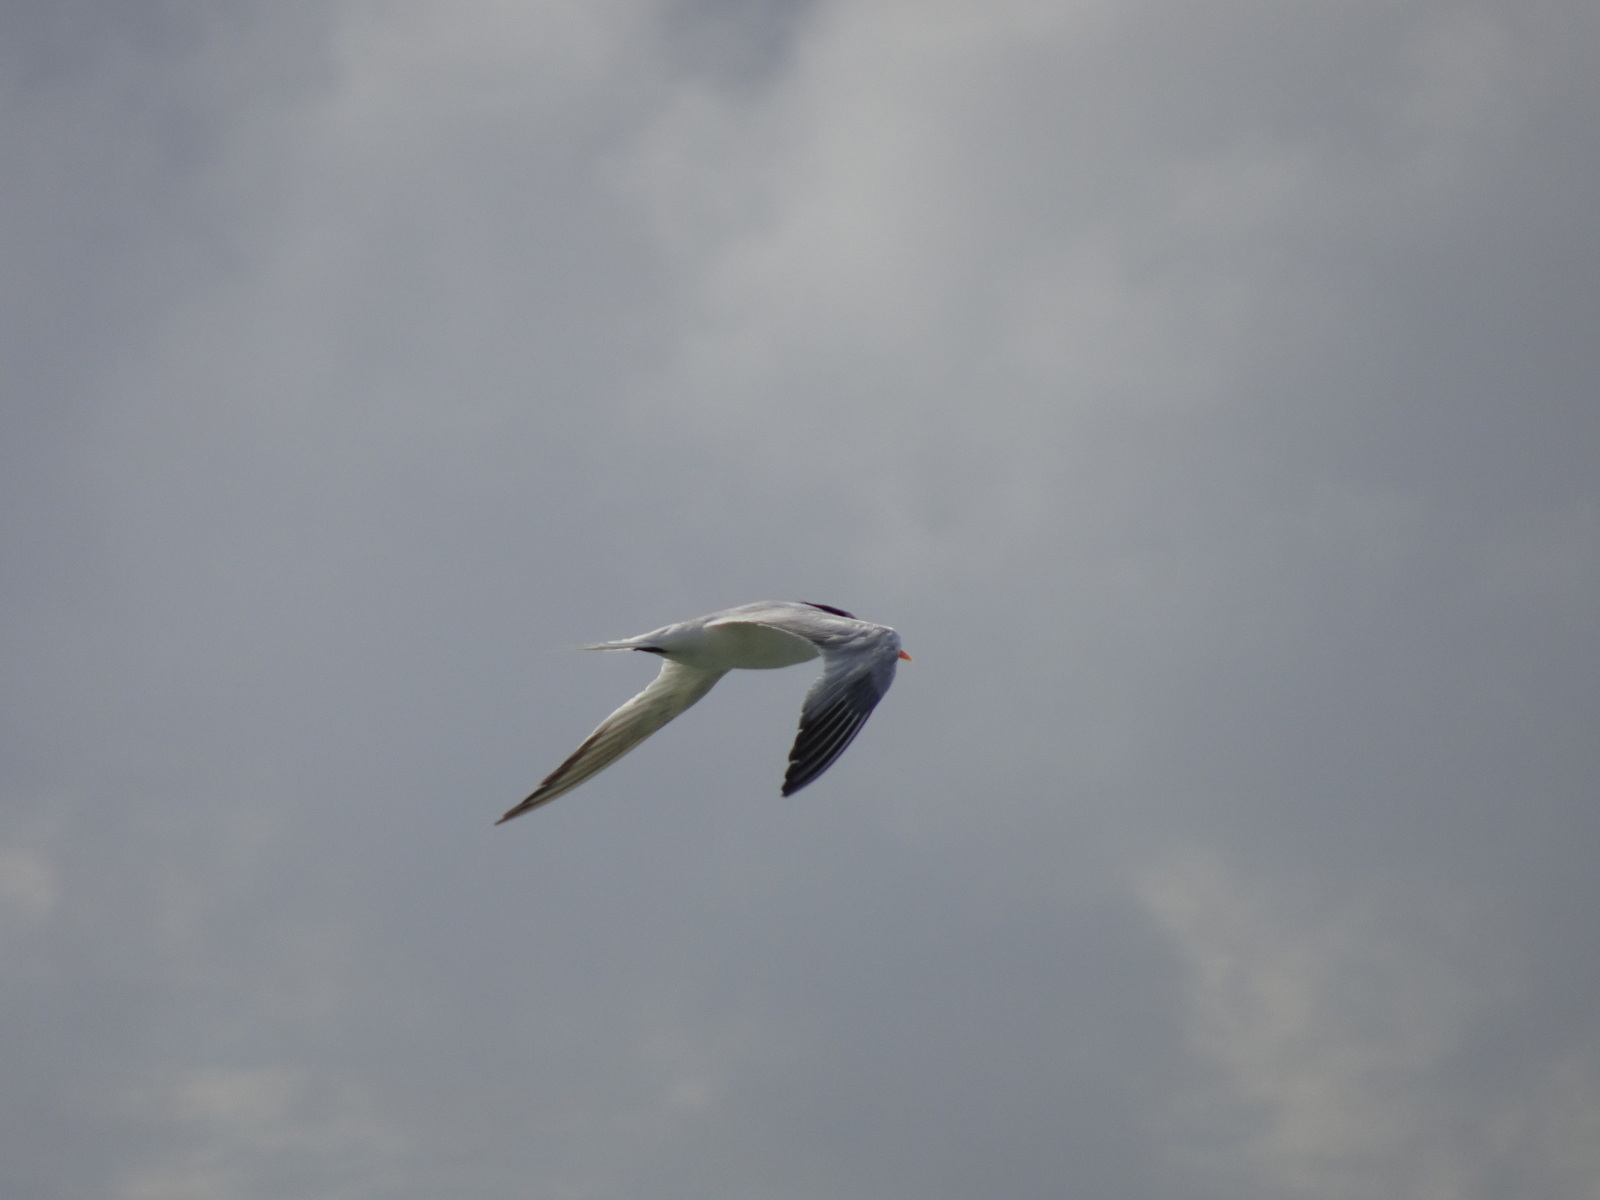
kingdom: Animalia
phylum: Chordata
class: Aves
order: Charadriiformes
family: Laridae
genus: Thalasseus
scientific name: Thalasseus maximus
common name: Royal tern
